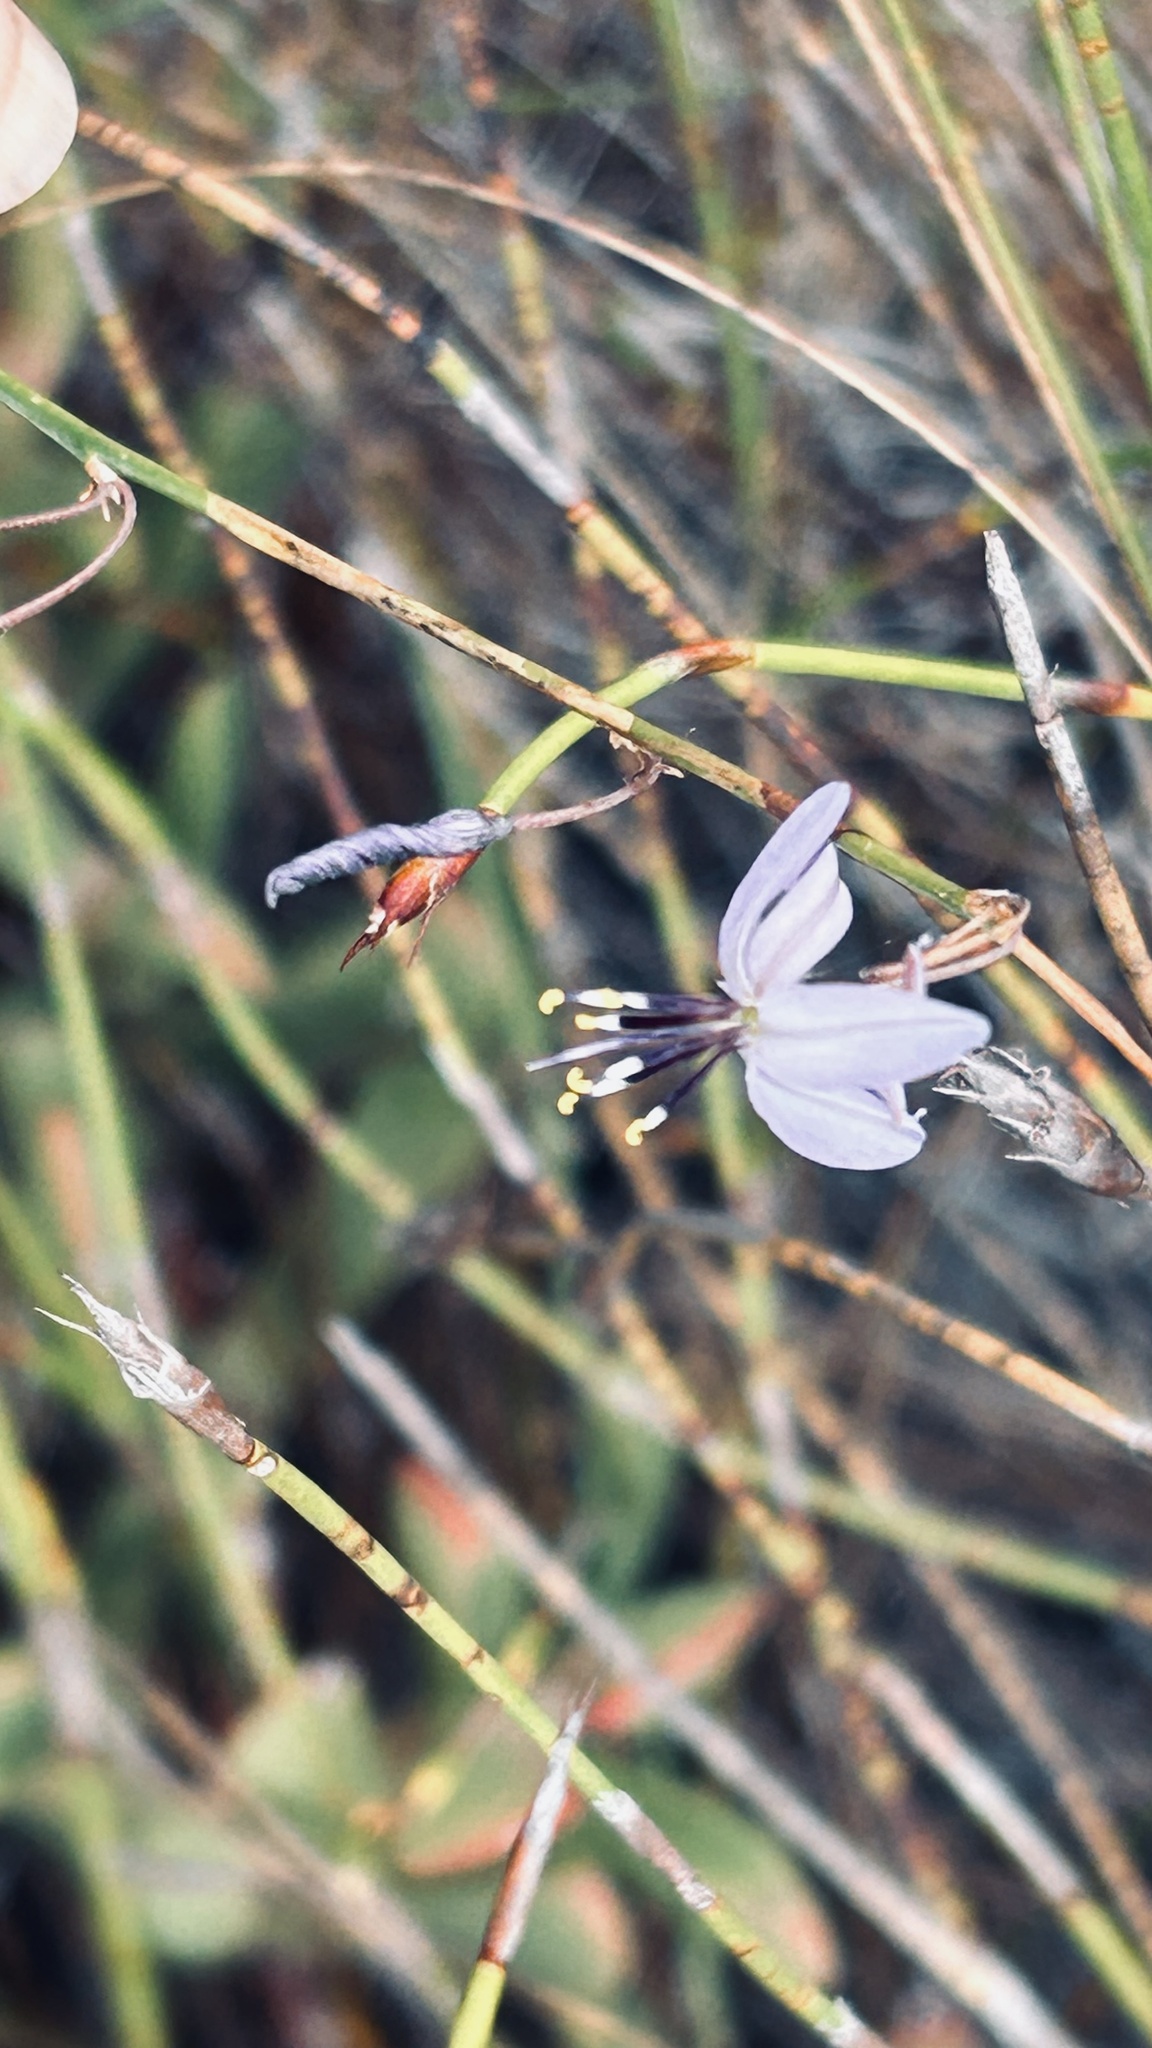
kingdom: Plantae
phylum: Tracheophyta
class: Liliopsida
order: Asparagales
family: Asphodelaceae
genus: Caesia
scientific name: Caesia contorta
